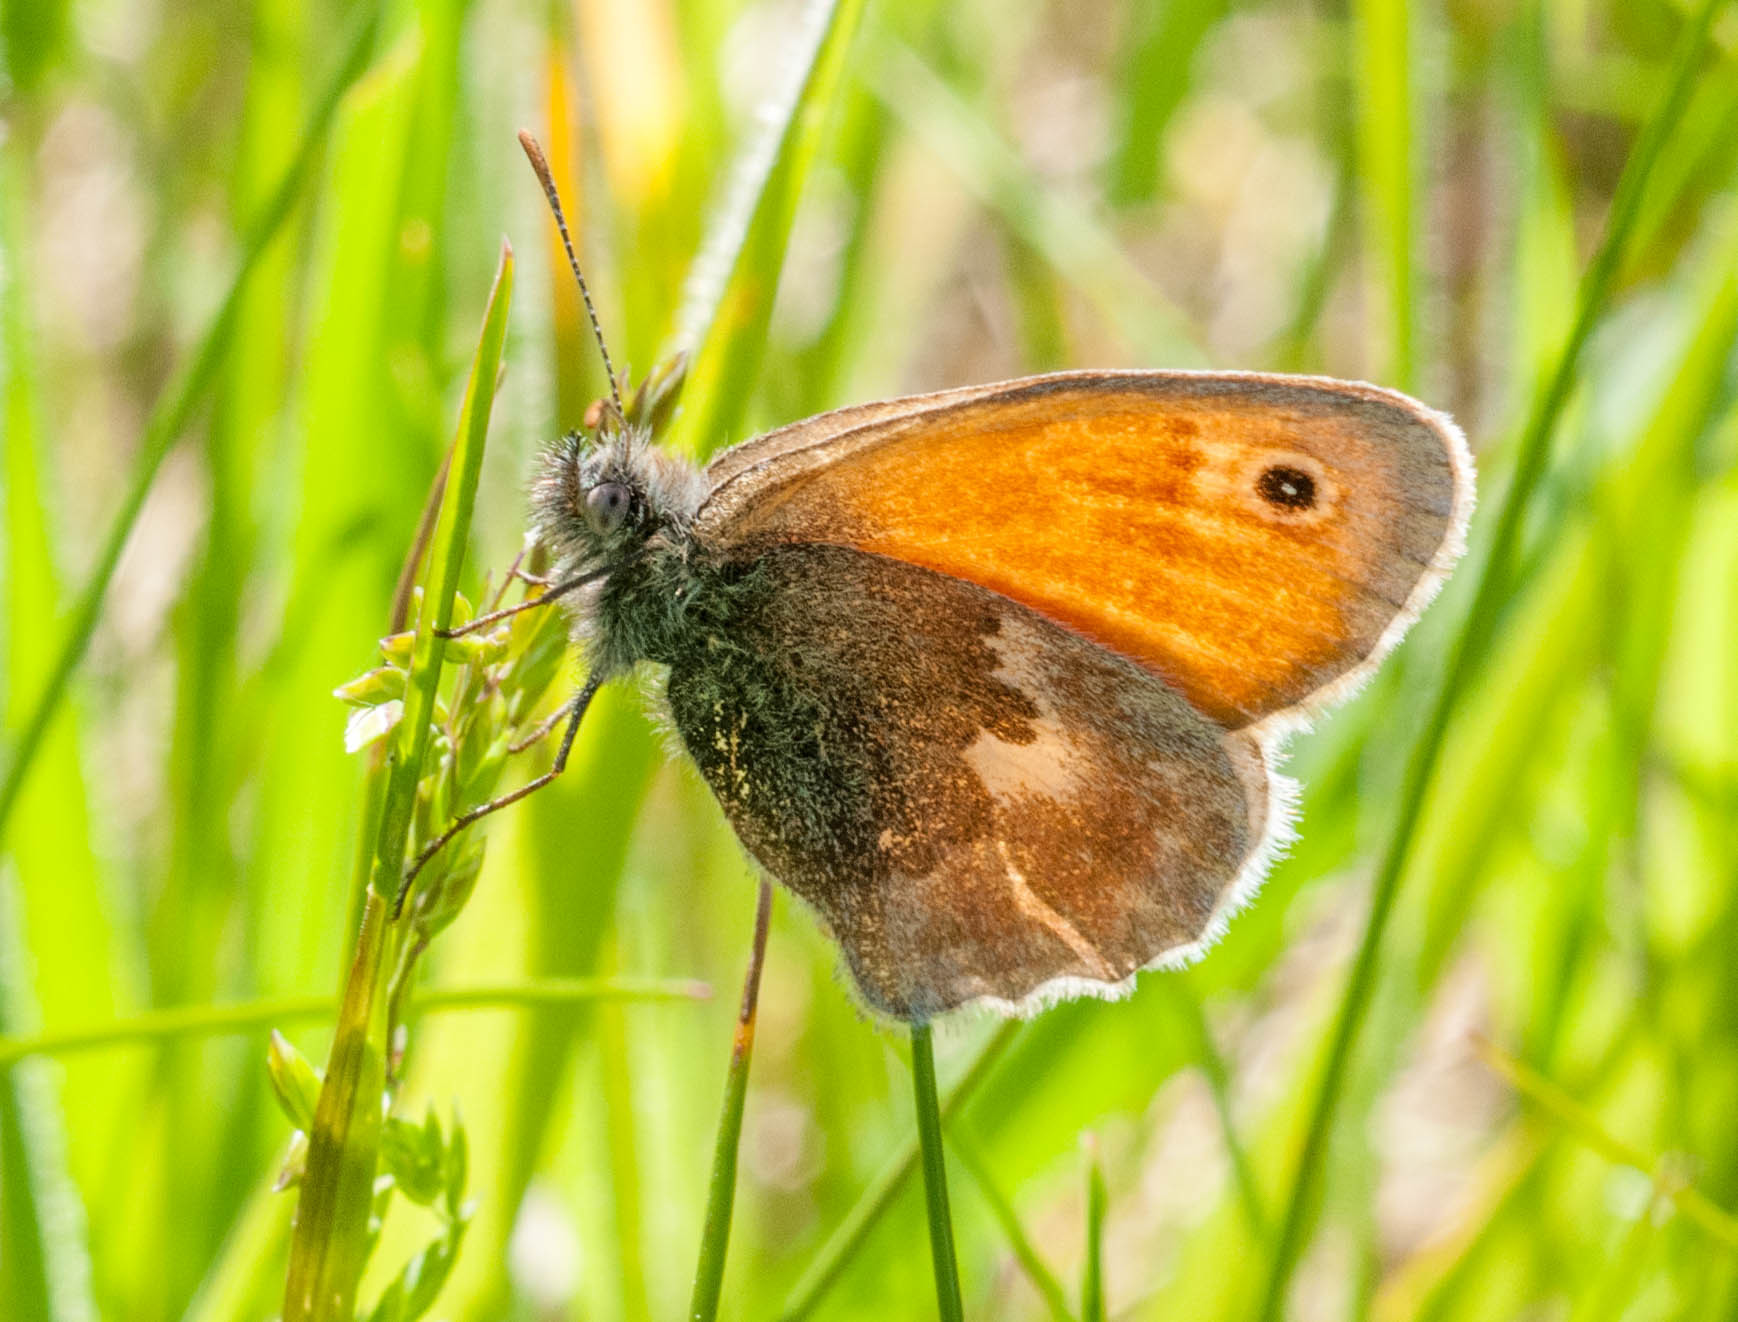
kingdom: Animalia
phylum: Arthropoda
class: Insecta
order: Lepidoptera
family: Nymphalidae
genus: Coenonympha
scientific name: Coenonympha pamphilus
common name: Small heath
